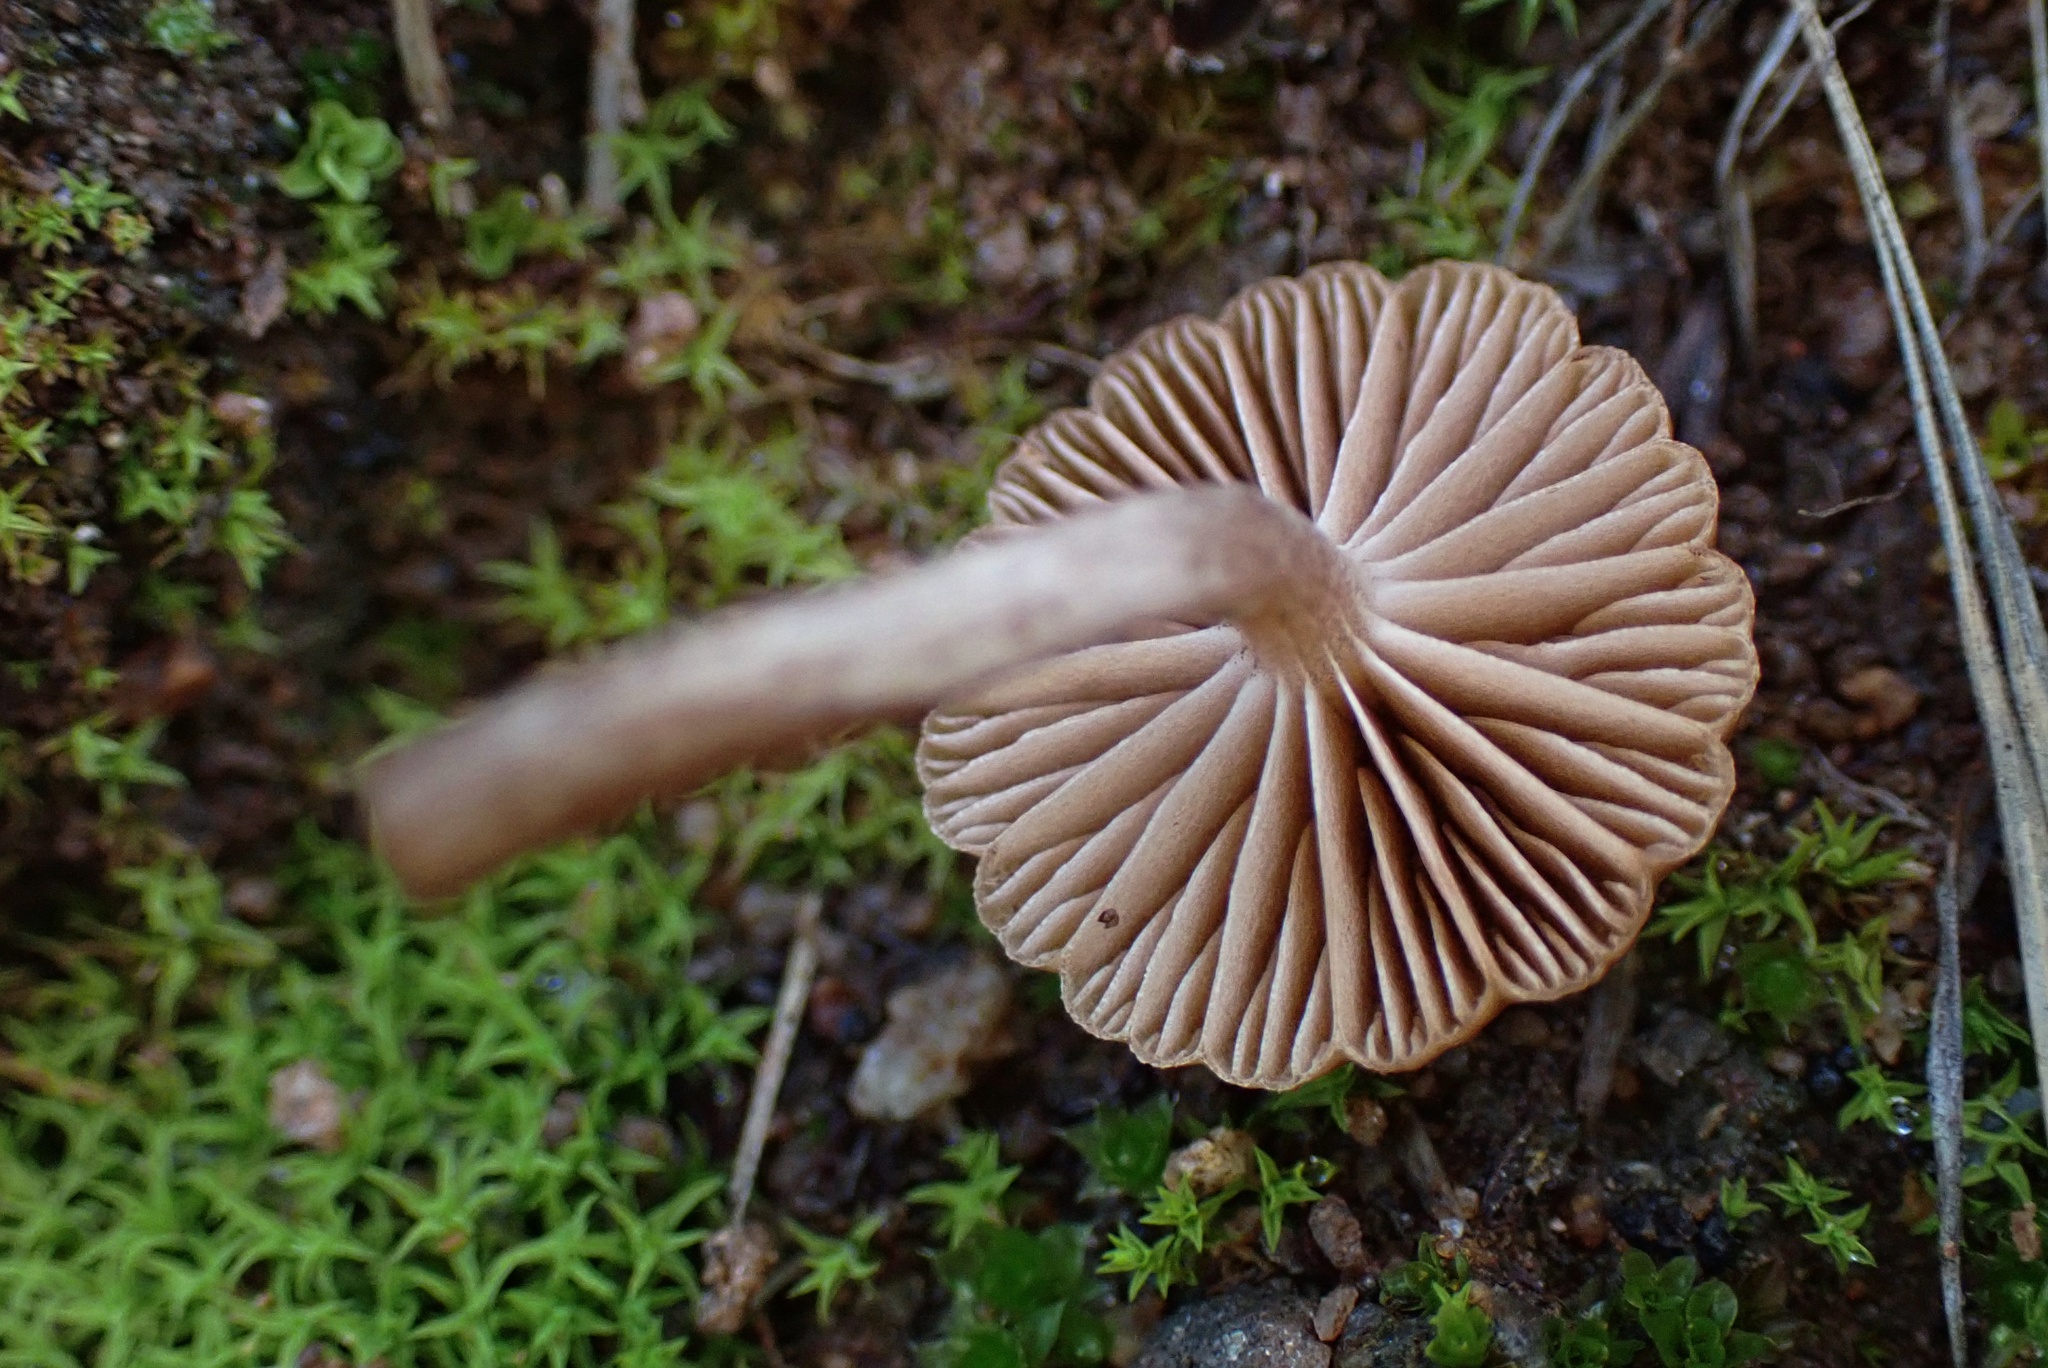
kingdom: Fungi
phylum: Basidiomycota
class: Agaricomycetes
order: Agaricales
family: Strophariaceae
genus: Deconica
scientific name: Deconica montana
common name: Mountain moss deconica
